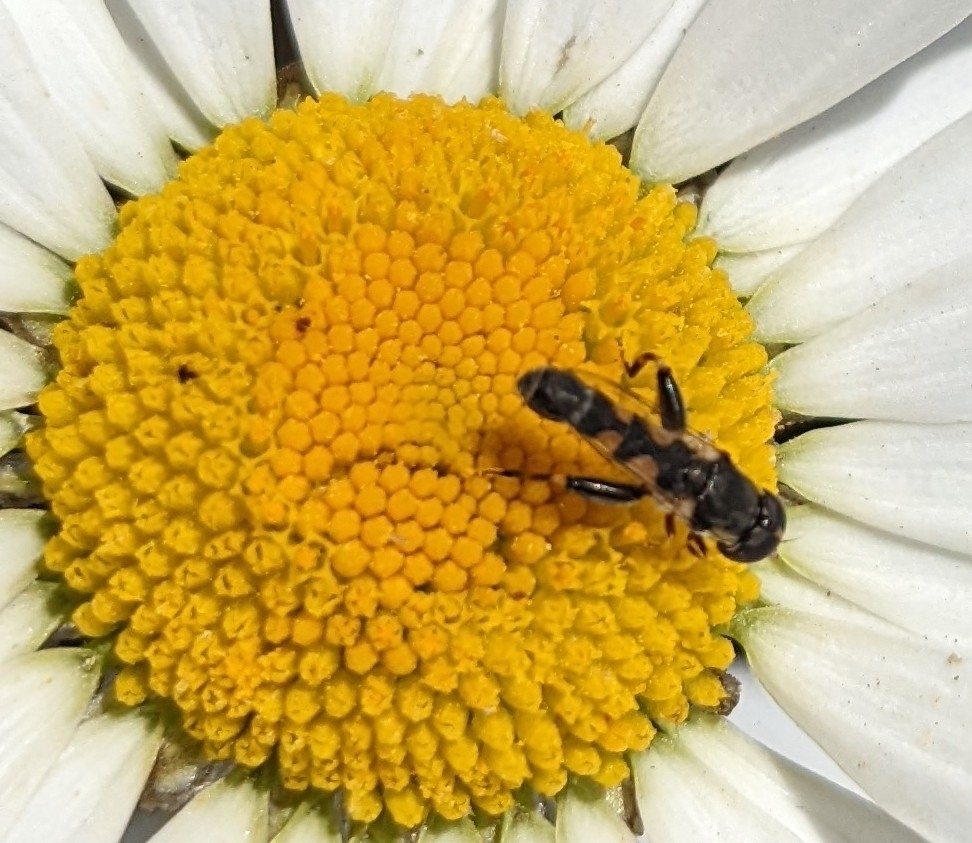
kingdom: Animalia
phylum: Arthropoda
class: Insecta
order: Diptera
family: Syrphidae
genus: Syritta
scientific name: Syritta pipiens
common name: Hover fly
